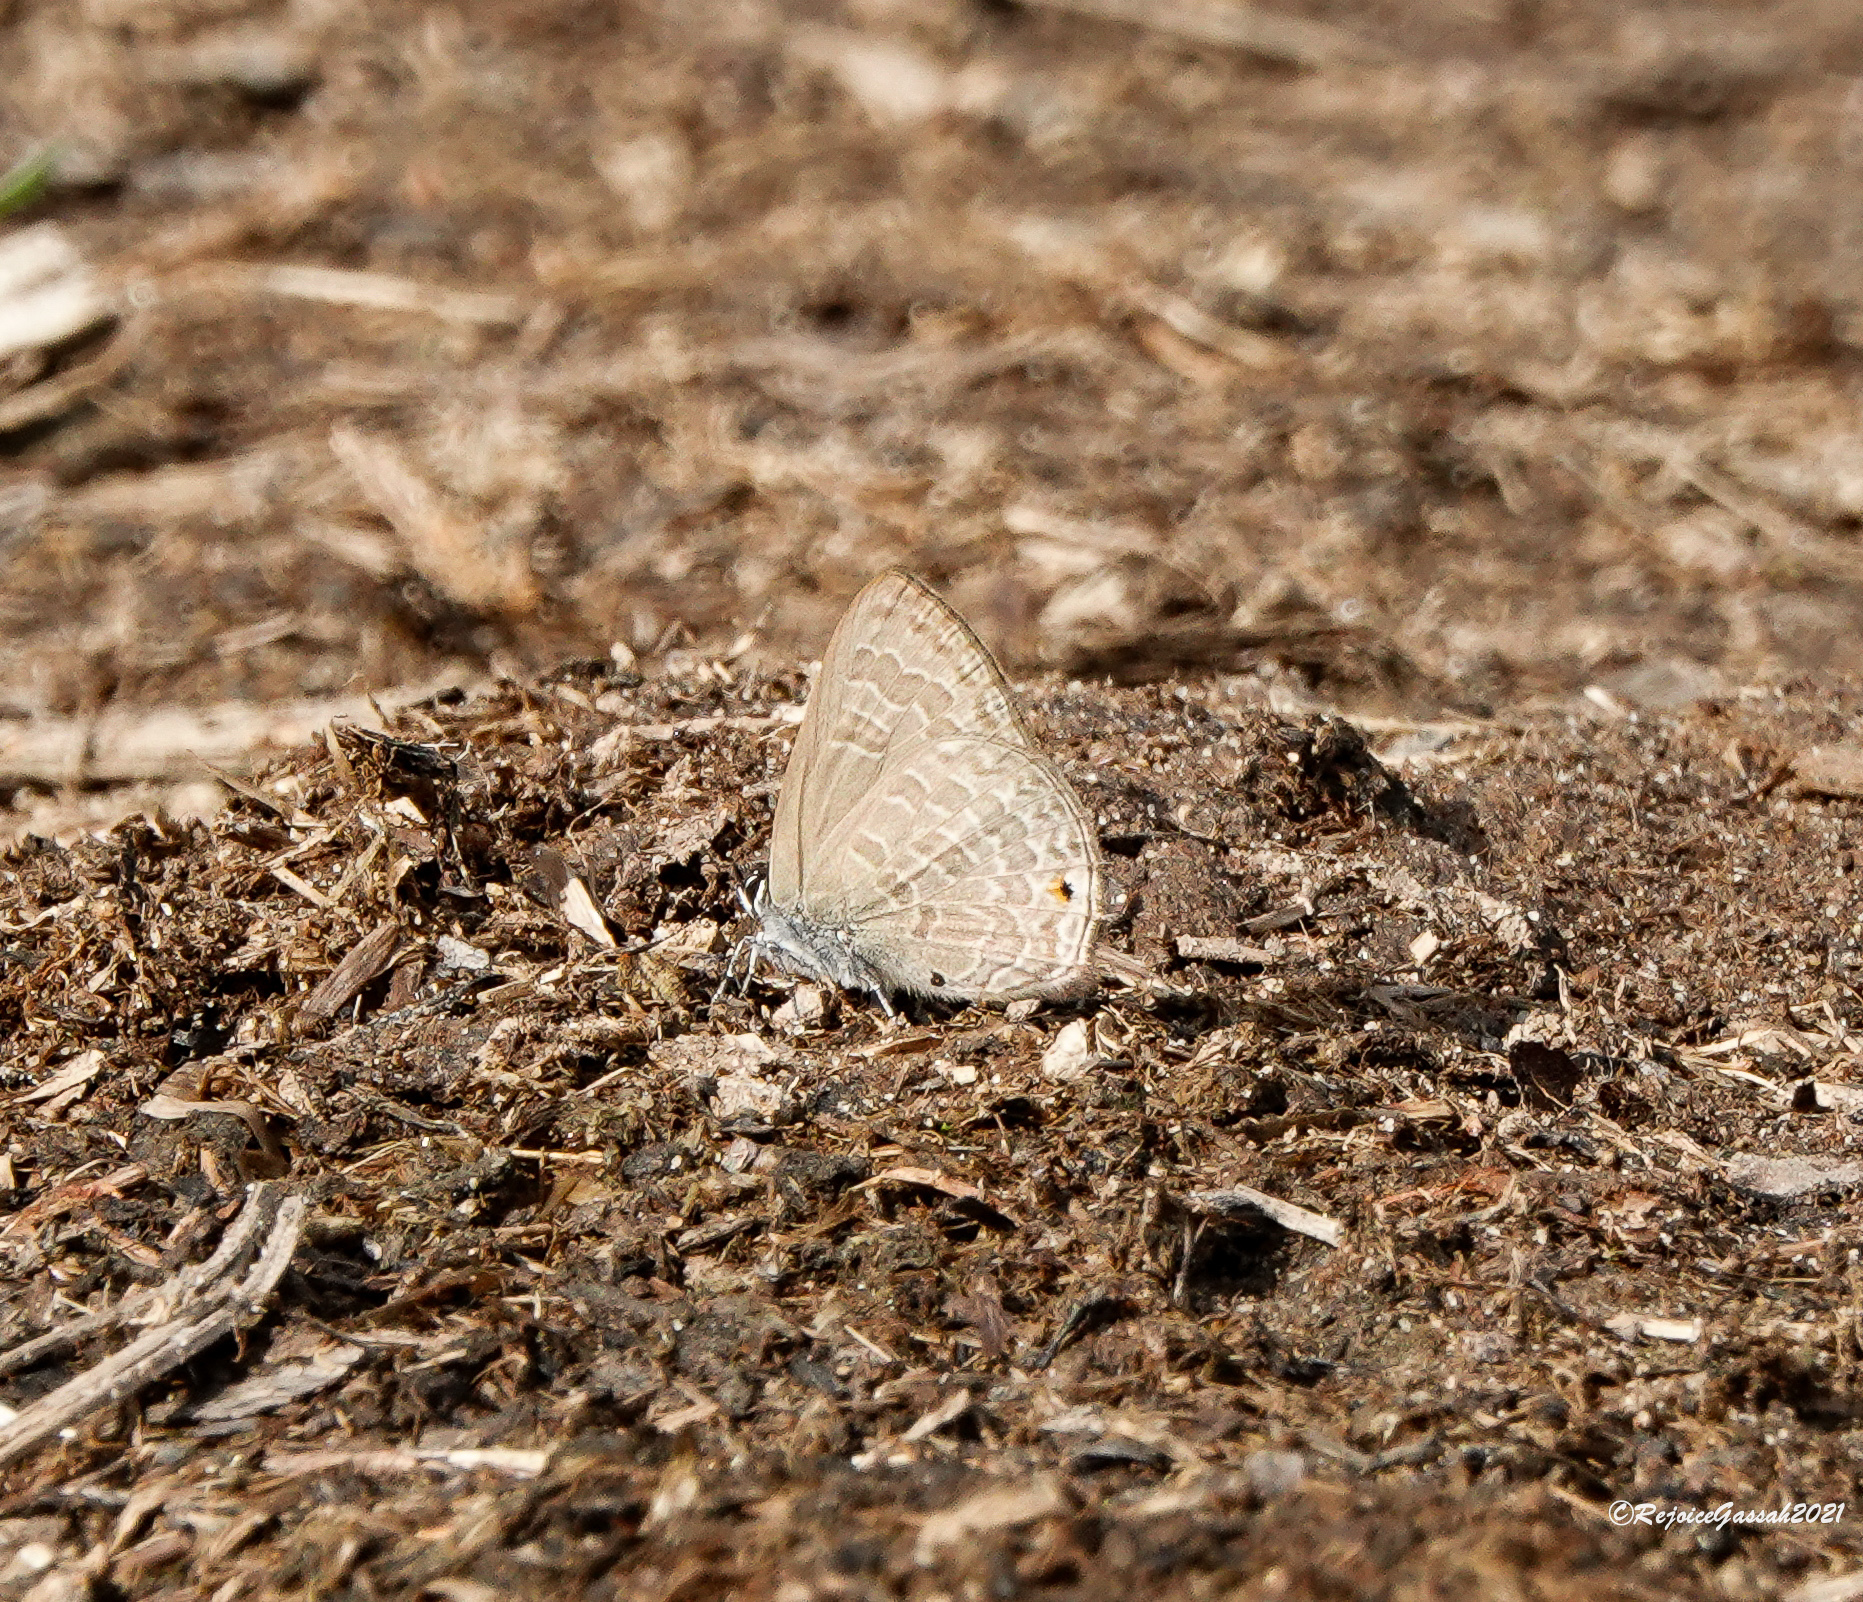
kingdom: Animalia
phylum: Arthropoda
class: Insecta
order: Lepidoptera
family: Lycaenidae
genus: Anthene
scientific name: Anthene emolus
